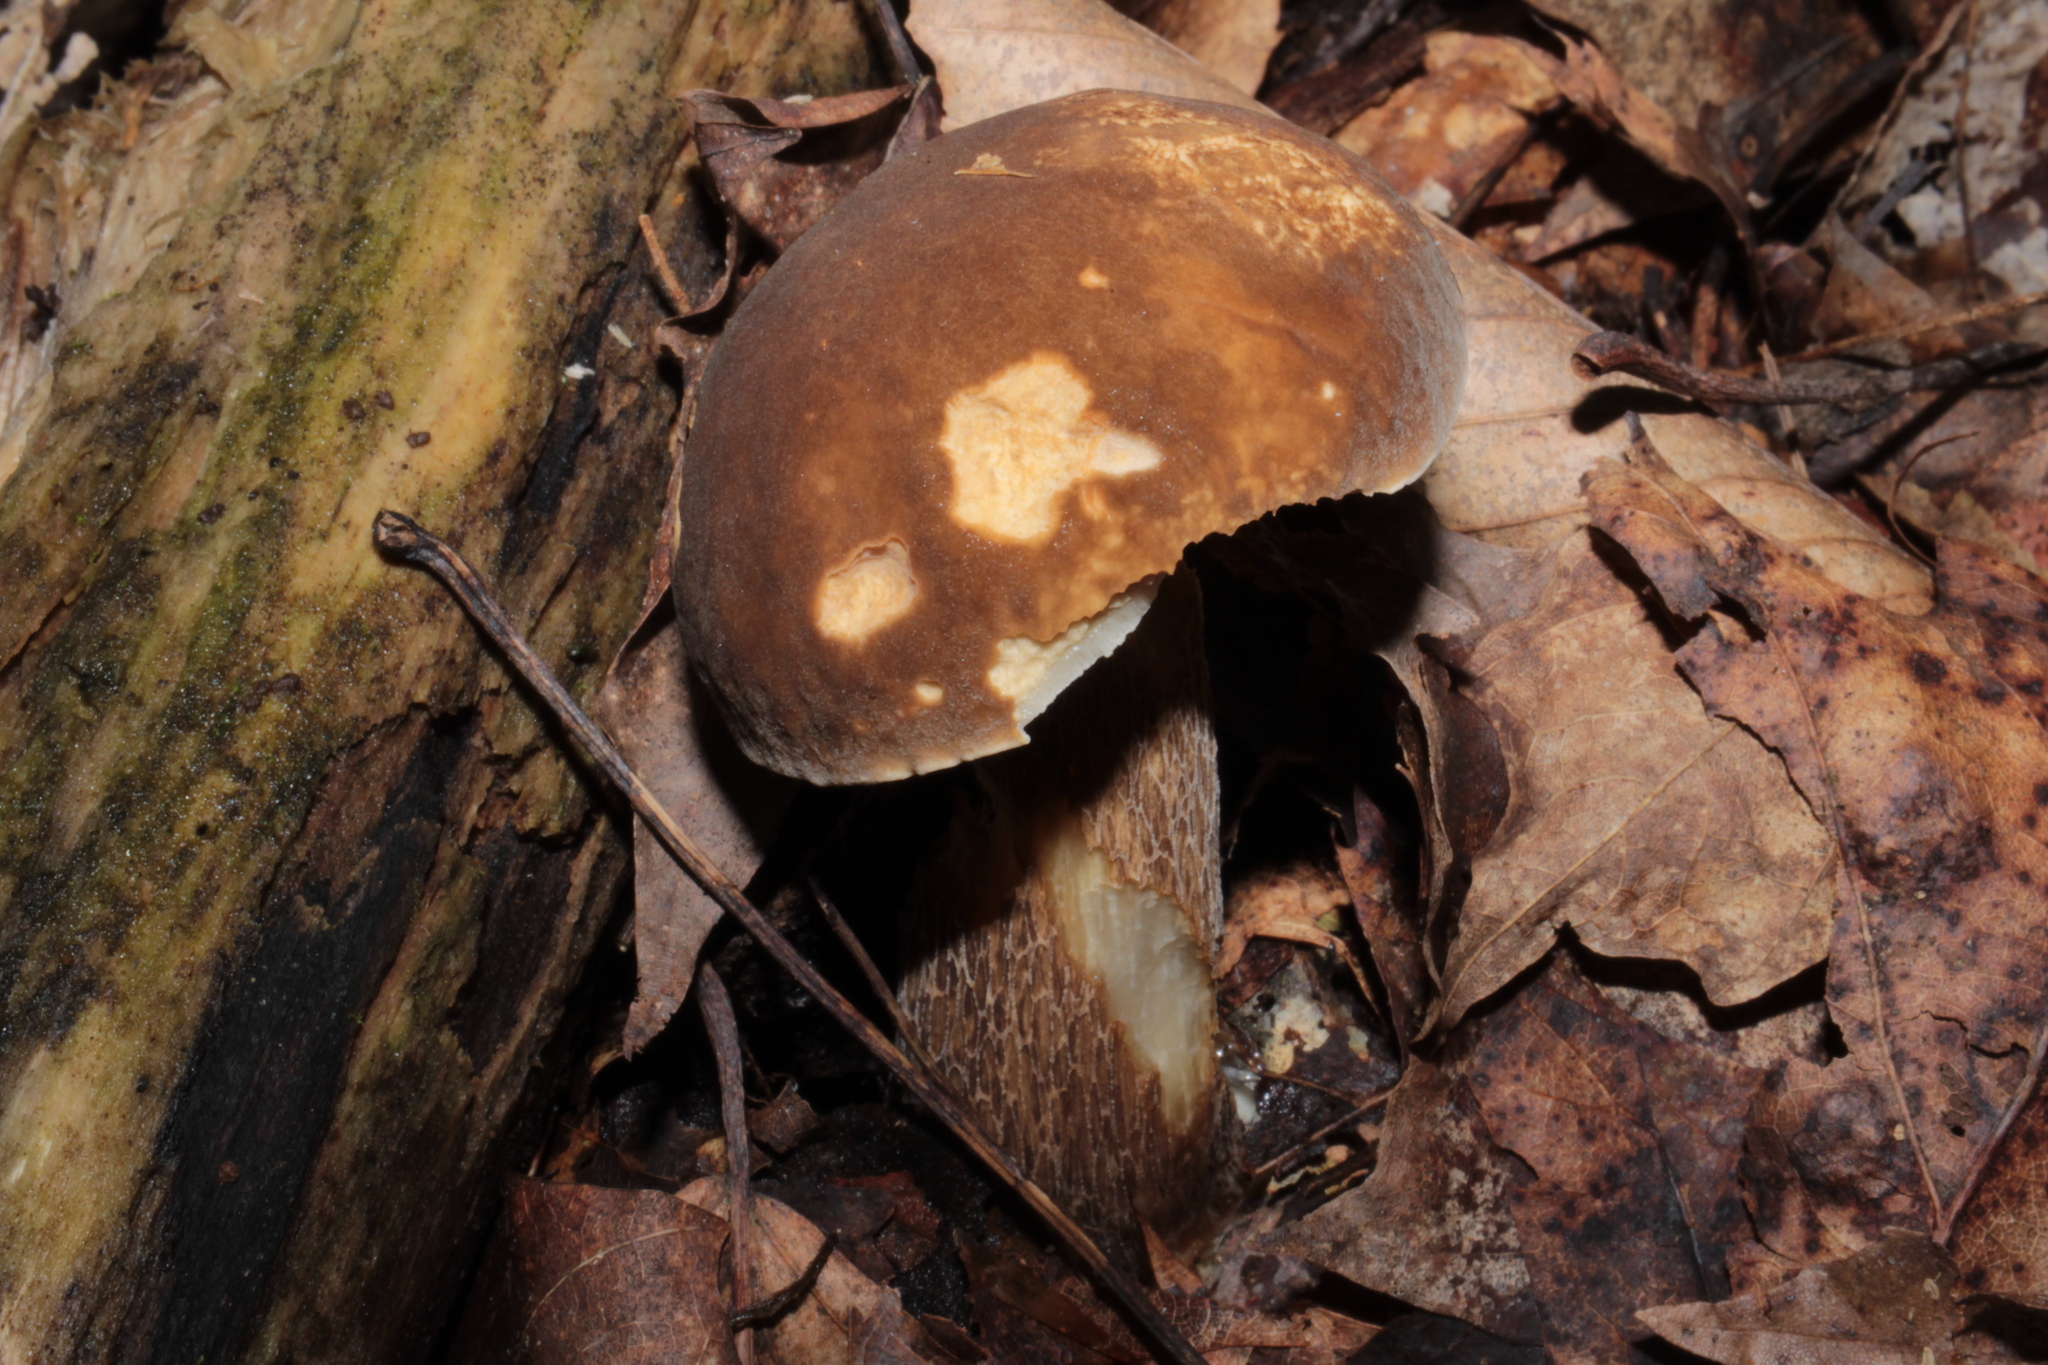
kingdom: Fungi
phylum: Basidiomycota
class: Agaricomycetes
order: Boletales
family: Boletaceae
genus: Boletus
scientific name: Boletus variipes
